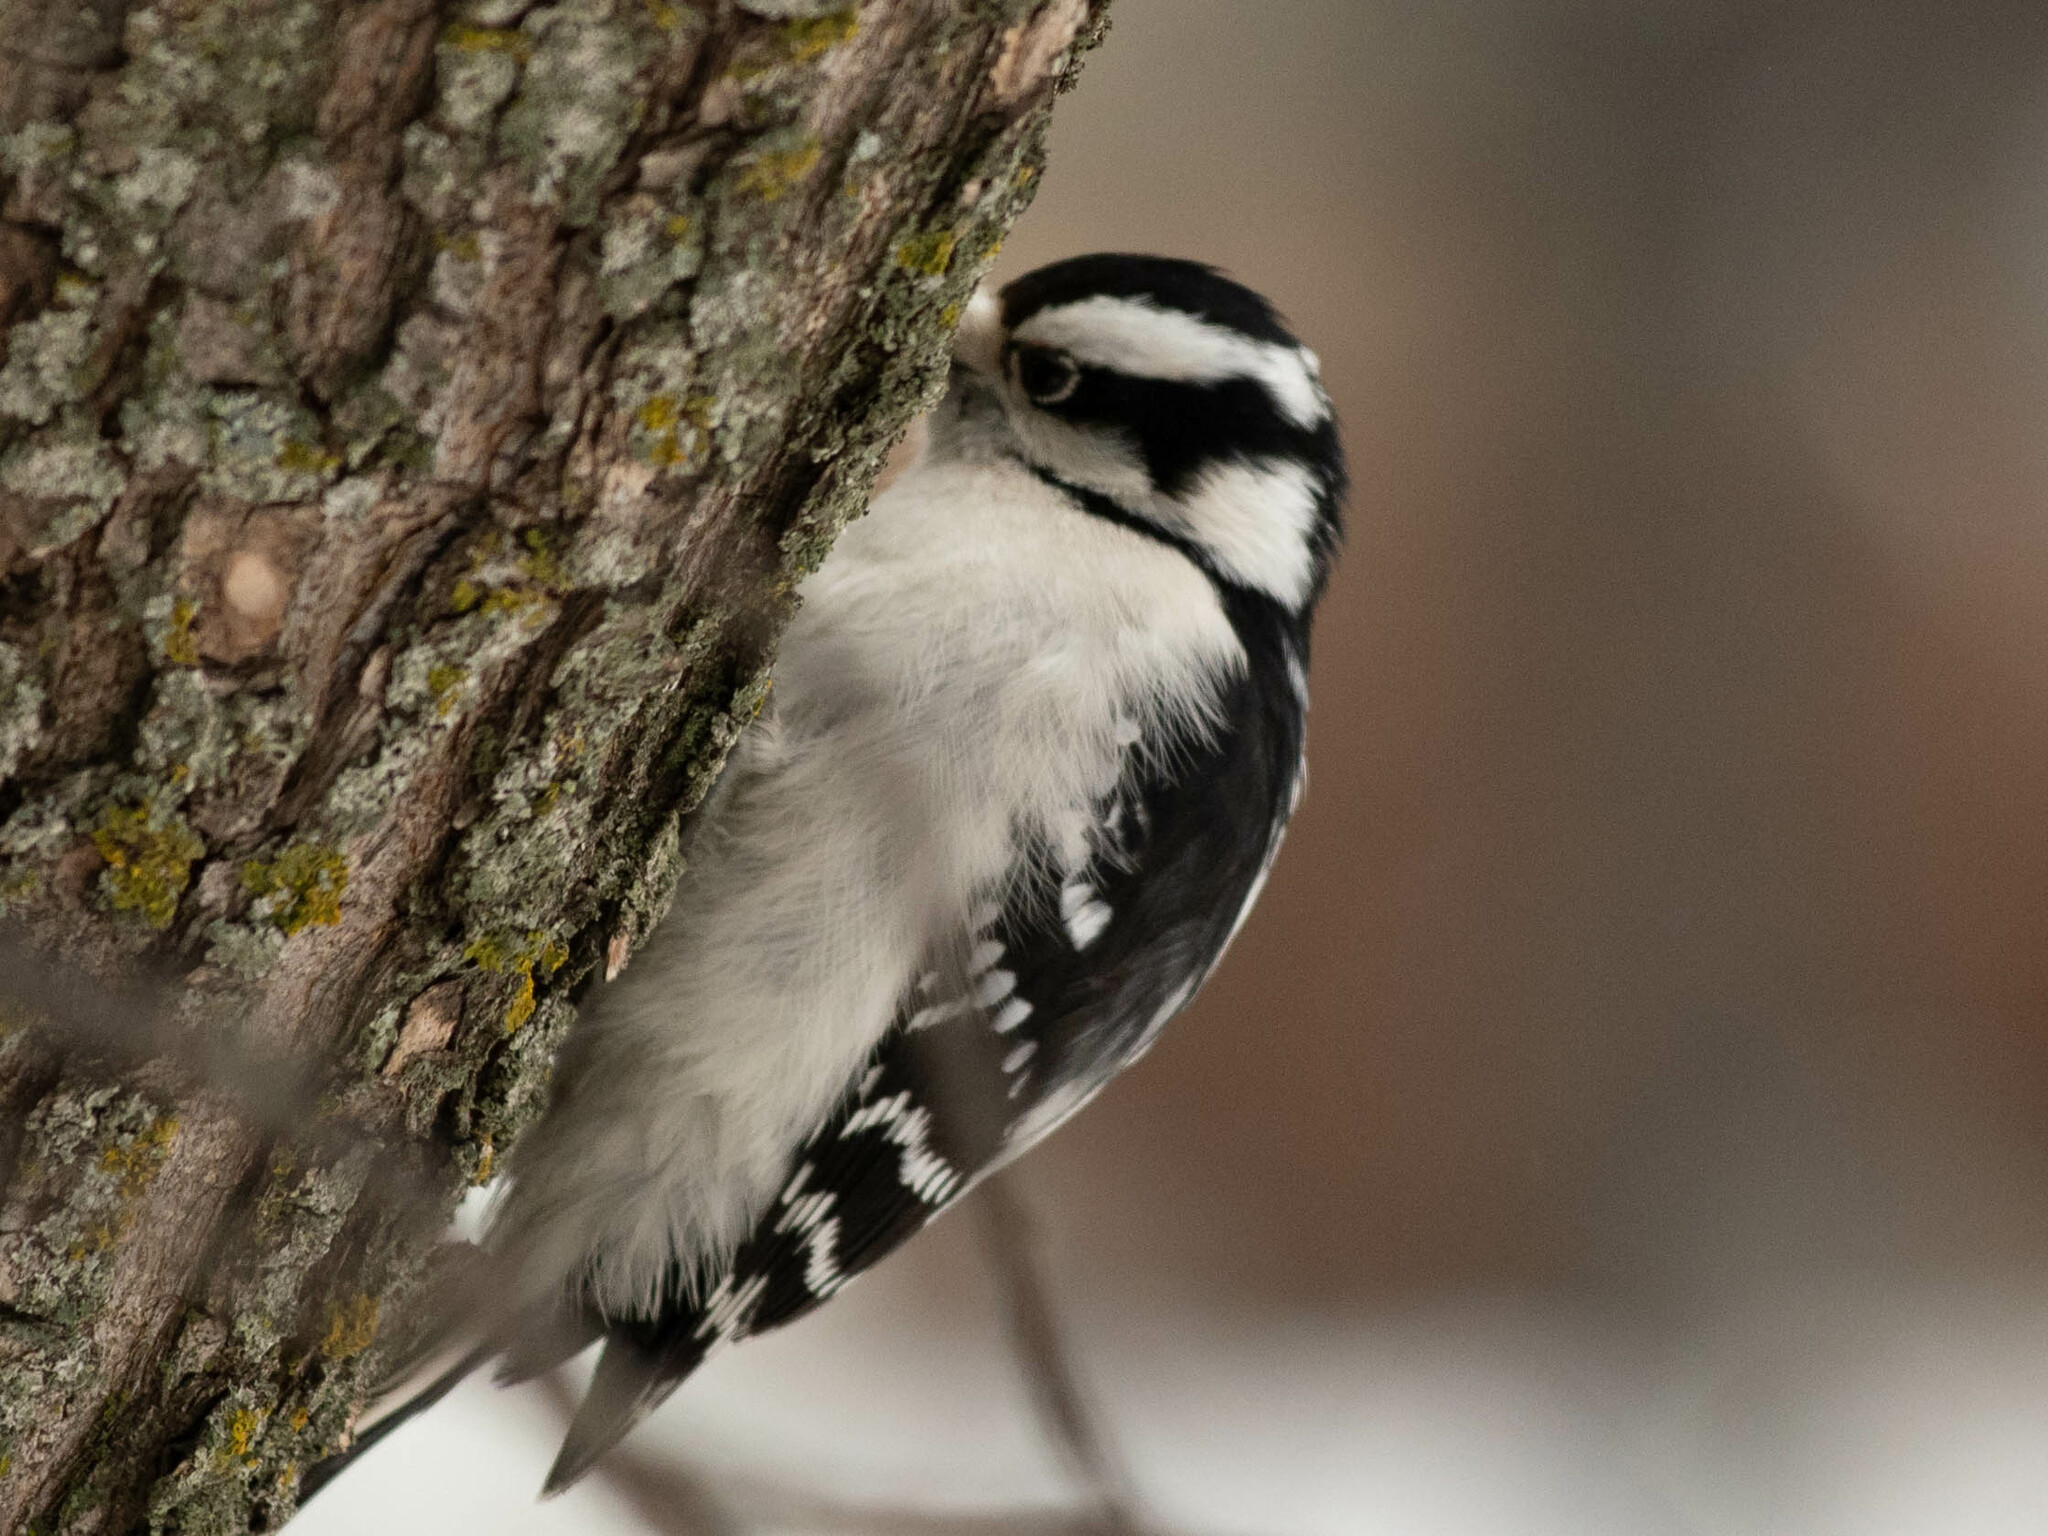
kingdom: Animalia
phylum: Chordata
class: Aves
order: Piciformes
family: Picidae
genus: Dryobates
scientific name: Dryobates pubescens
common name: Downy woodpecker
